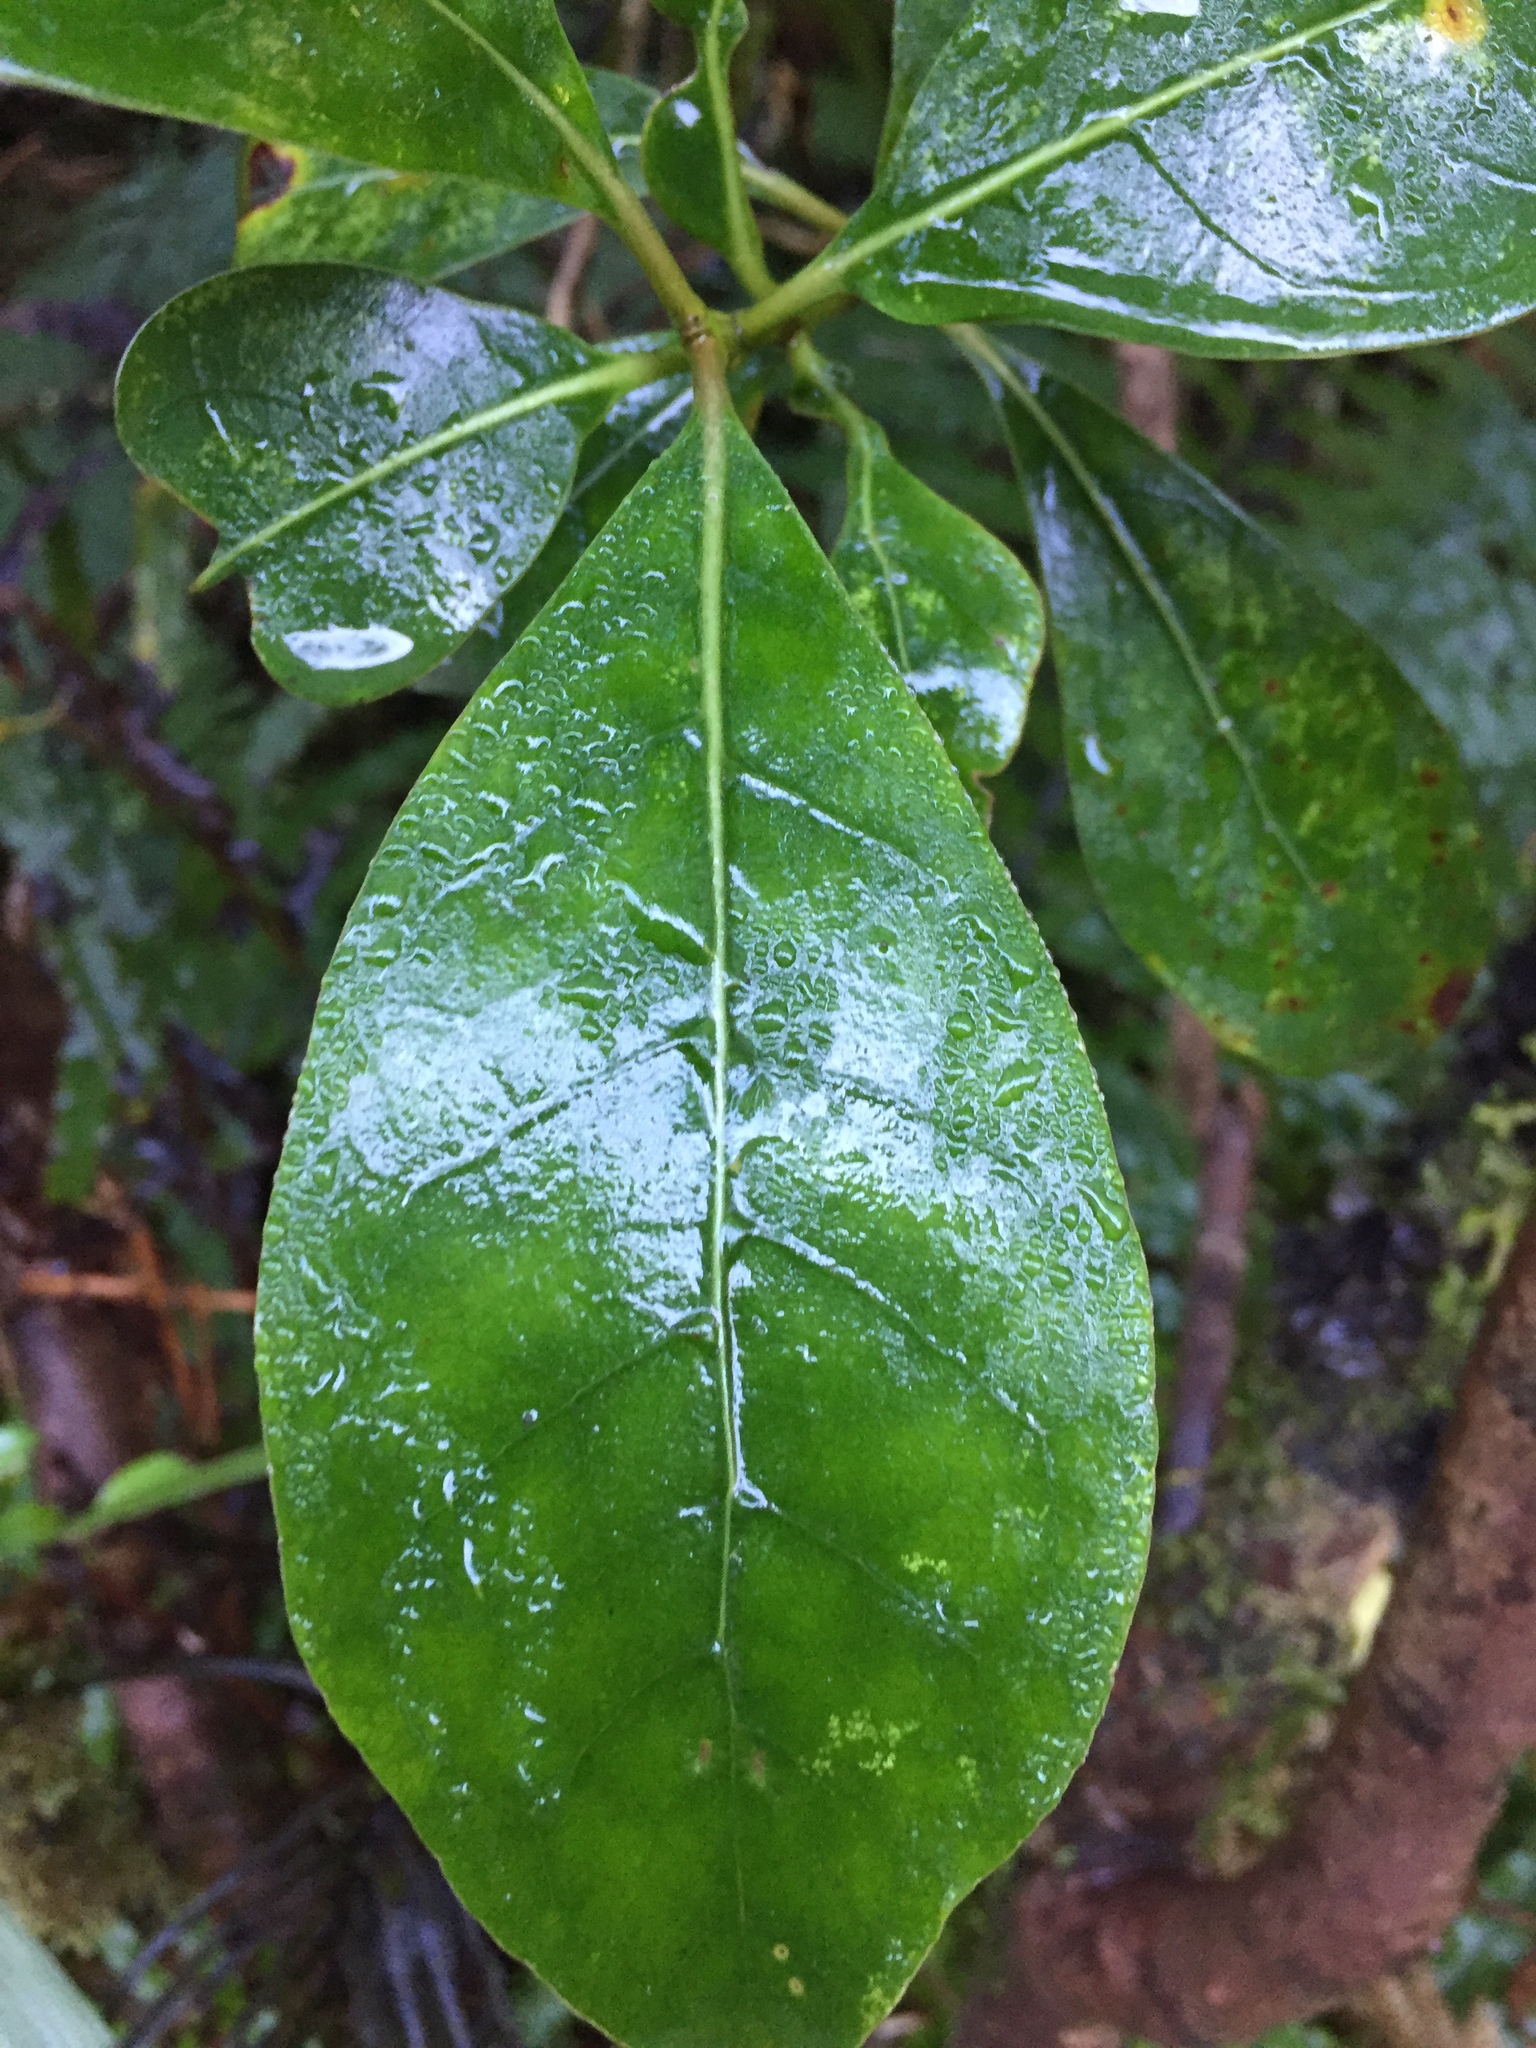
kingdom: Plantae
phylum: Tracheophyta
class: Magnoliopsida
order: Gentianales
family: Rubiaceae
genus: Coprosma
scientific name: Coprosma lucida
